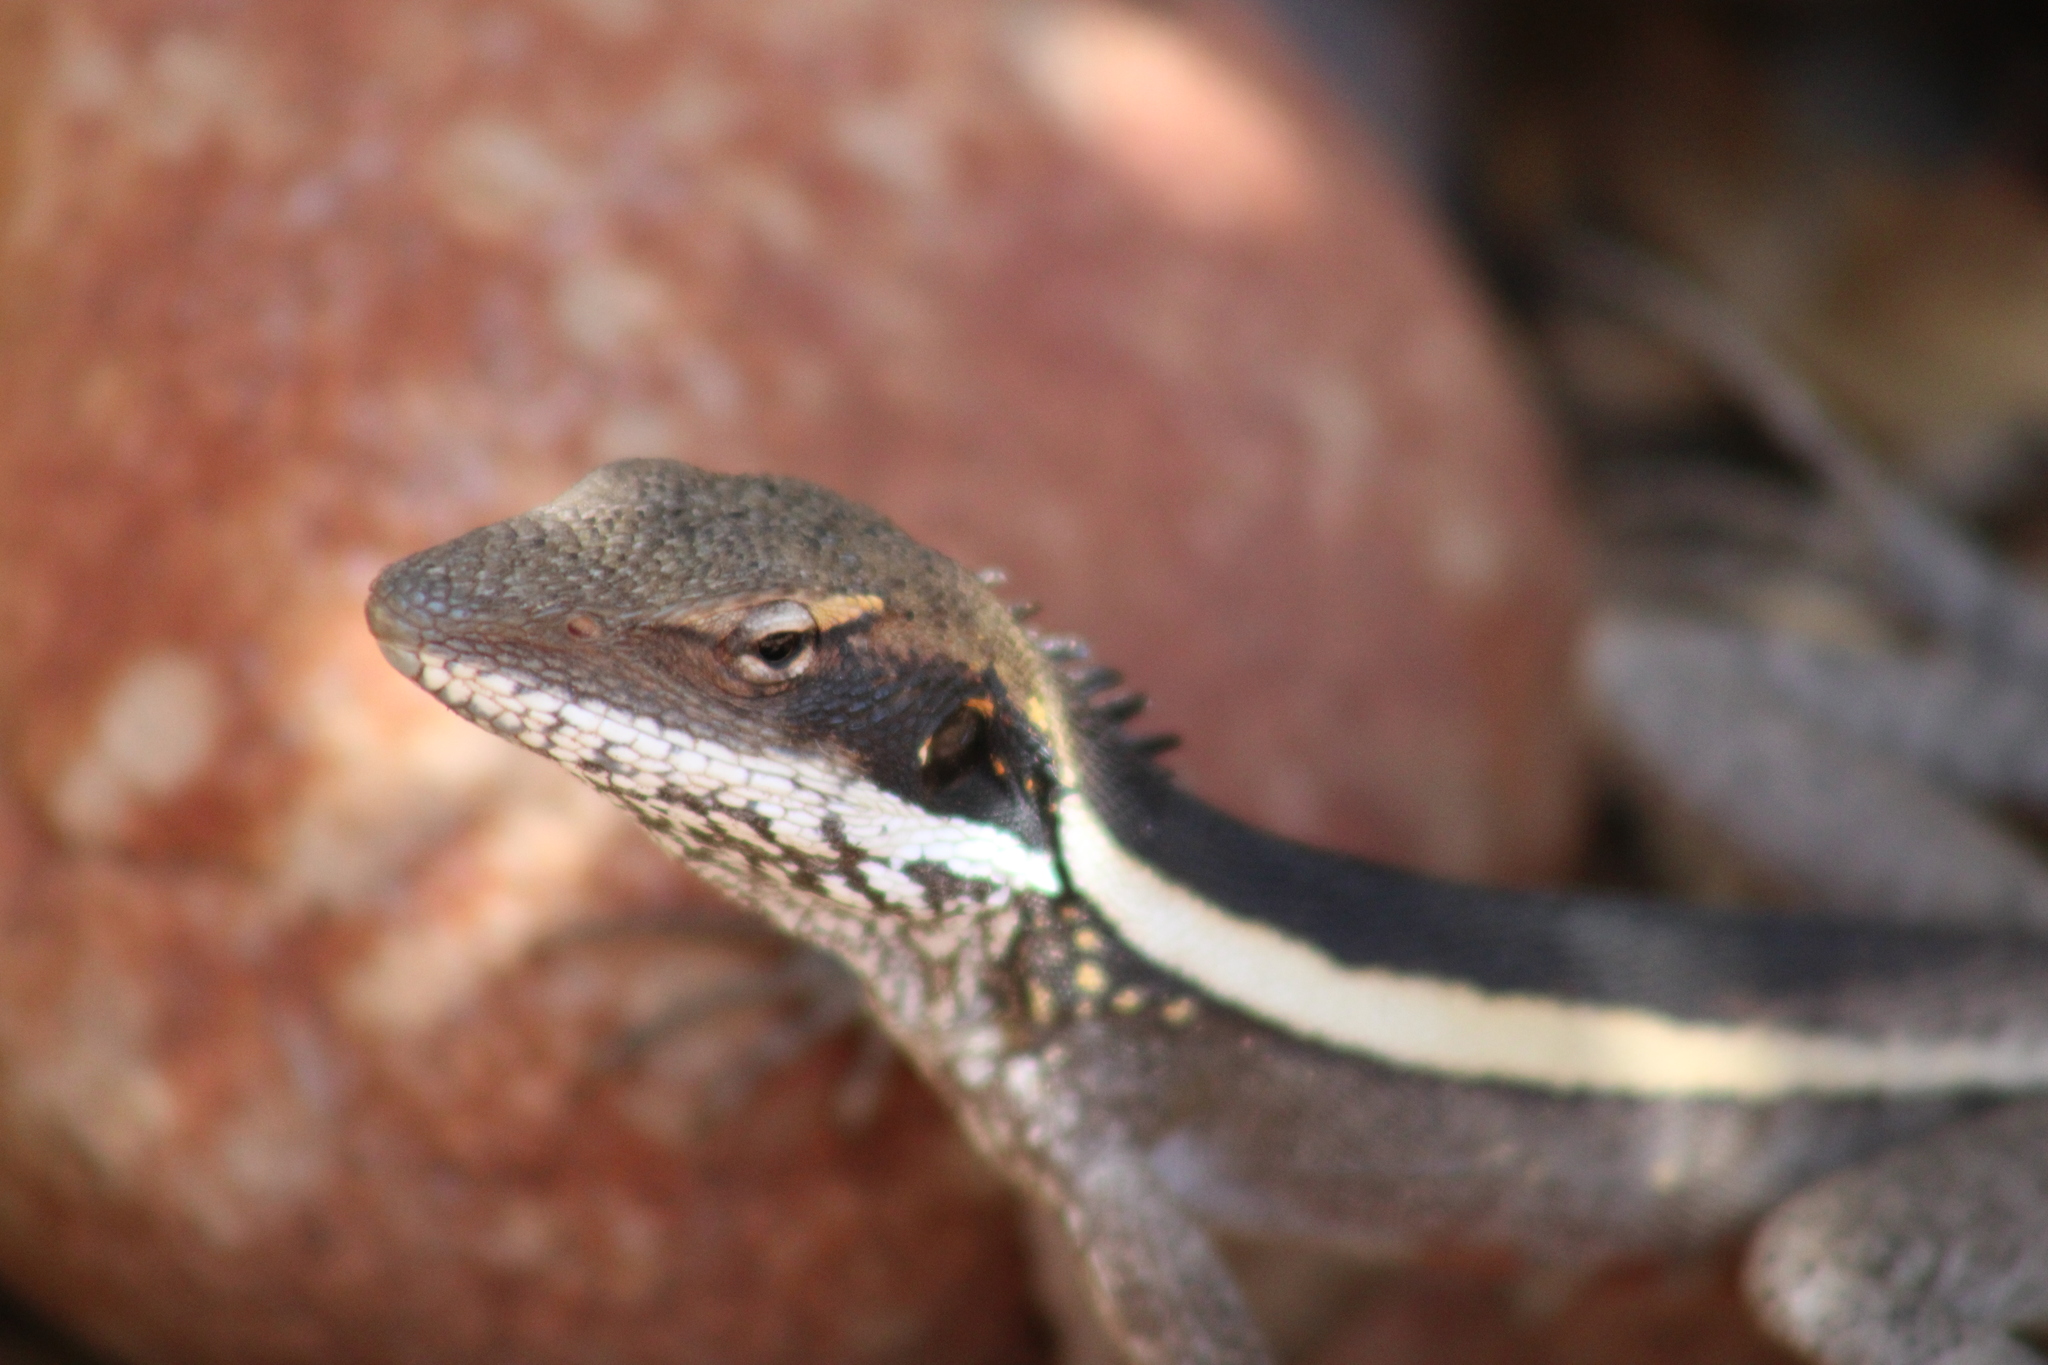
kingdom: Animalia
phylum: Chordata
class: Squamata
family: Agamidae
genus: Gowidon
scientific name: Gowidon longirostris
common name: Long-nosed water dragon
